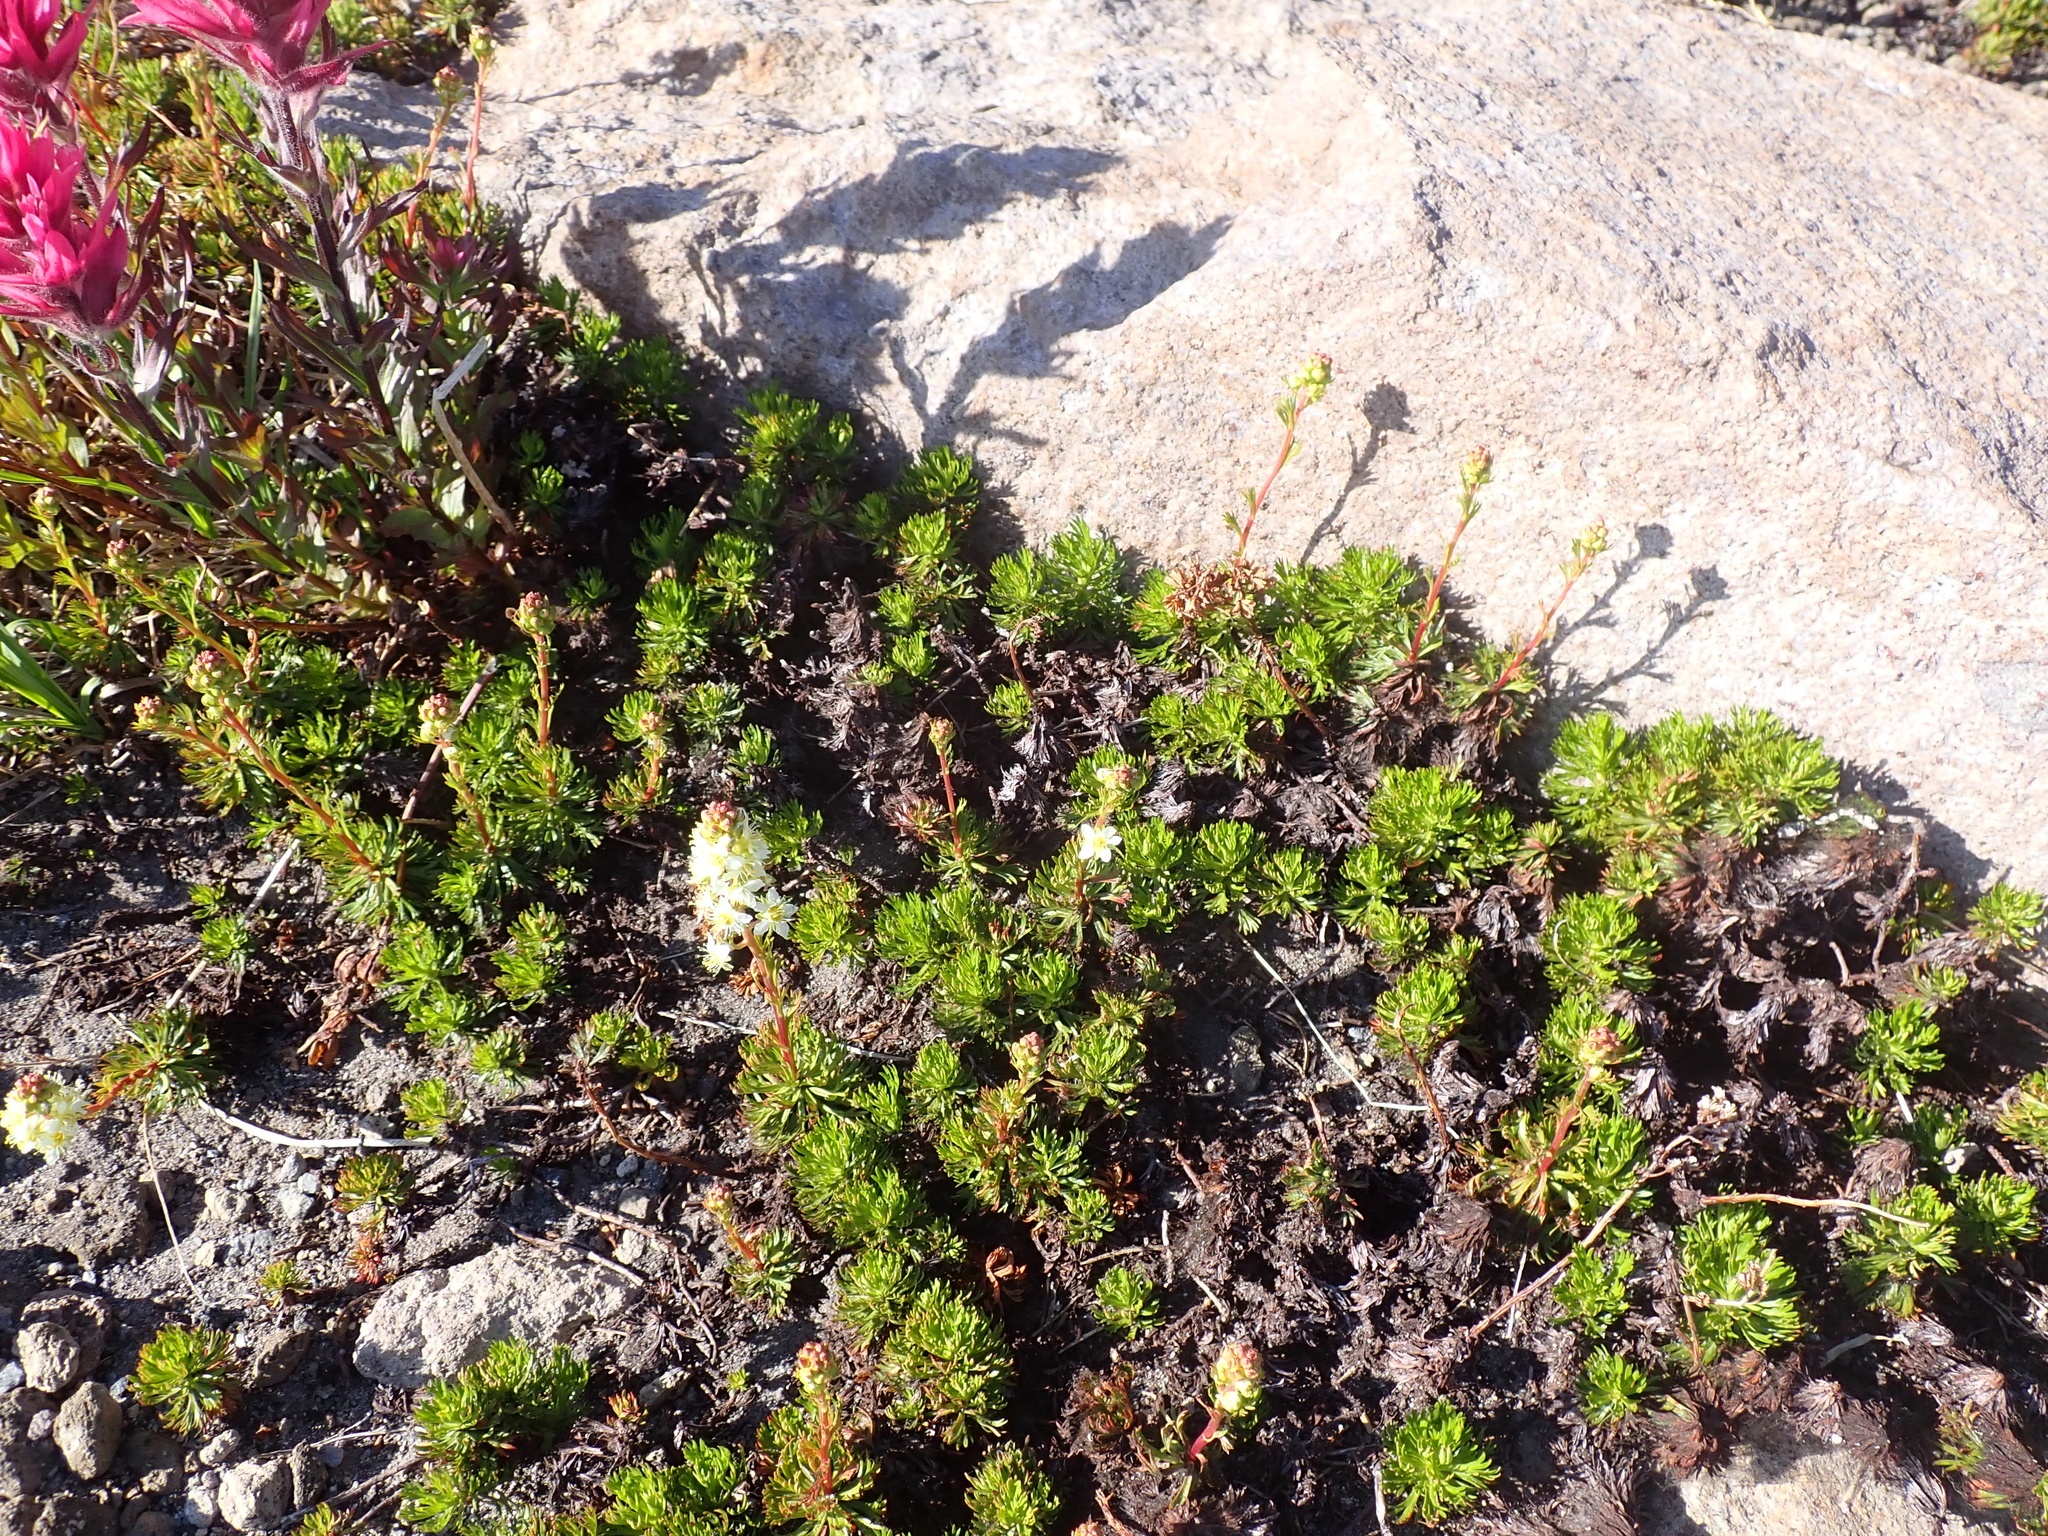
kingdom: Plantae
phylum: Tracheophyta
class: Magnoliopsida
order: Rosales
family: Rosaceae
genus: Luetkea
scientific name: Luetkea pectinata
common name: Partridgefoot
